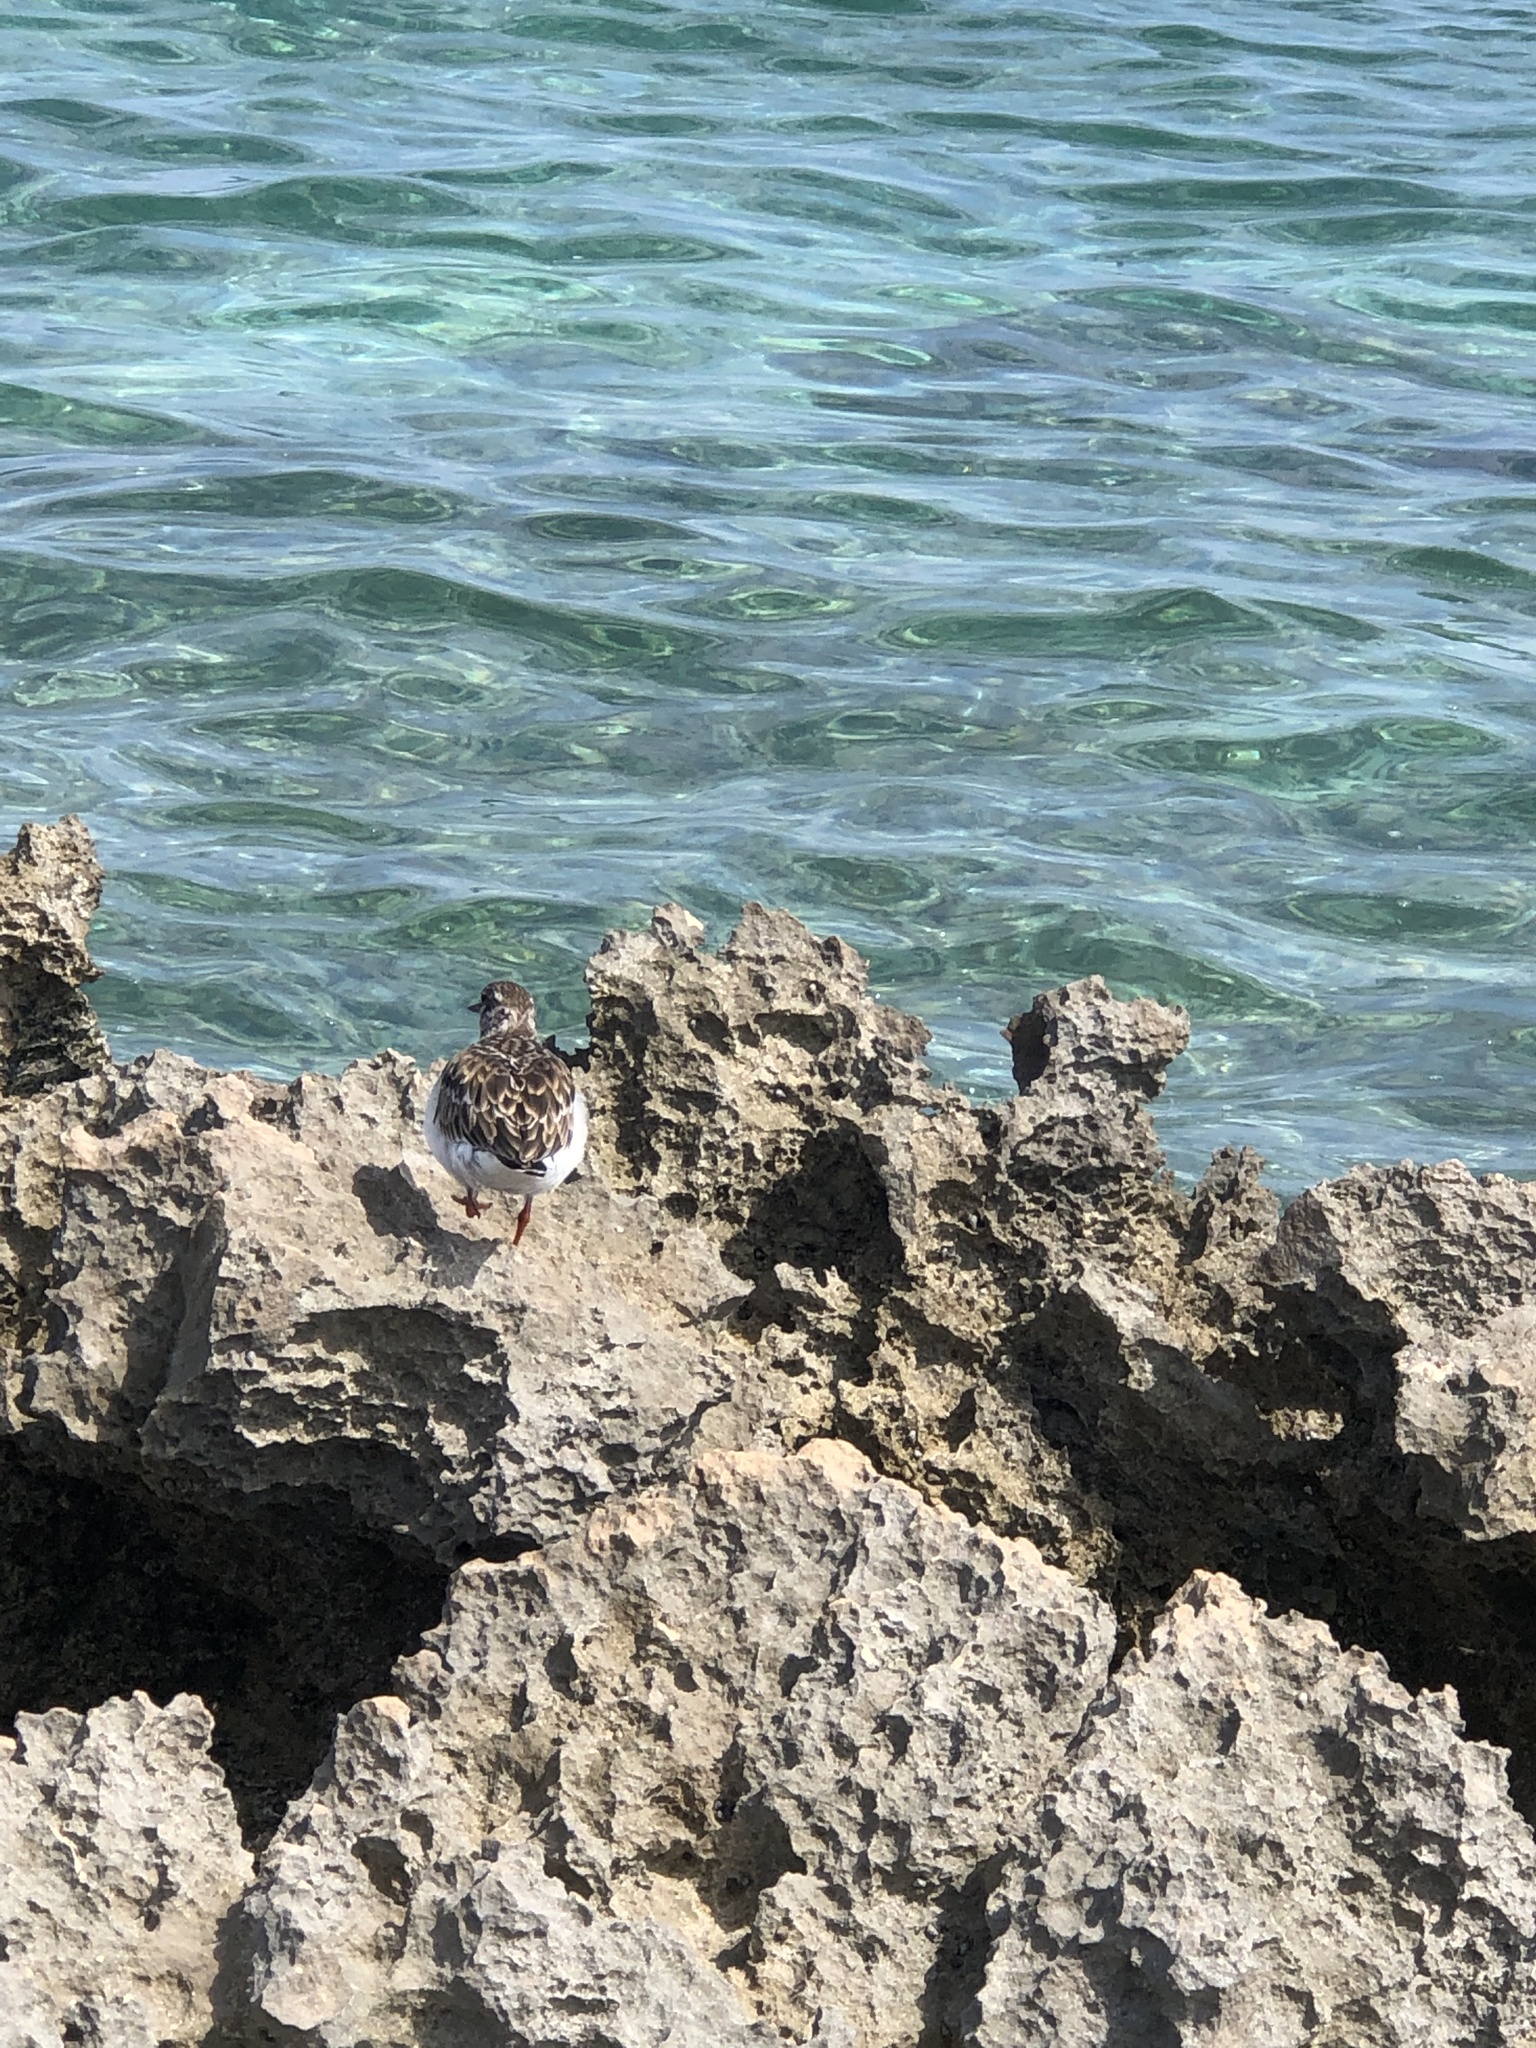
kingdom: Animalia
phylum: Chordata
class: Aves
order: Charadriiformes
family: Scolopacidae
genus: Arenaria
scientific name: Arenaria interpres
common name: Ruddy turnstone
